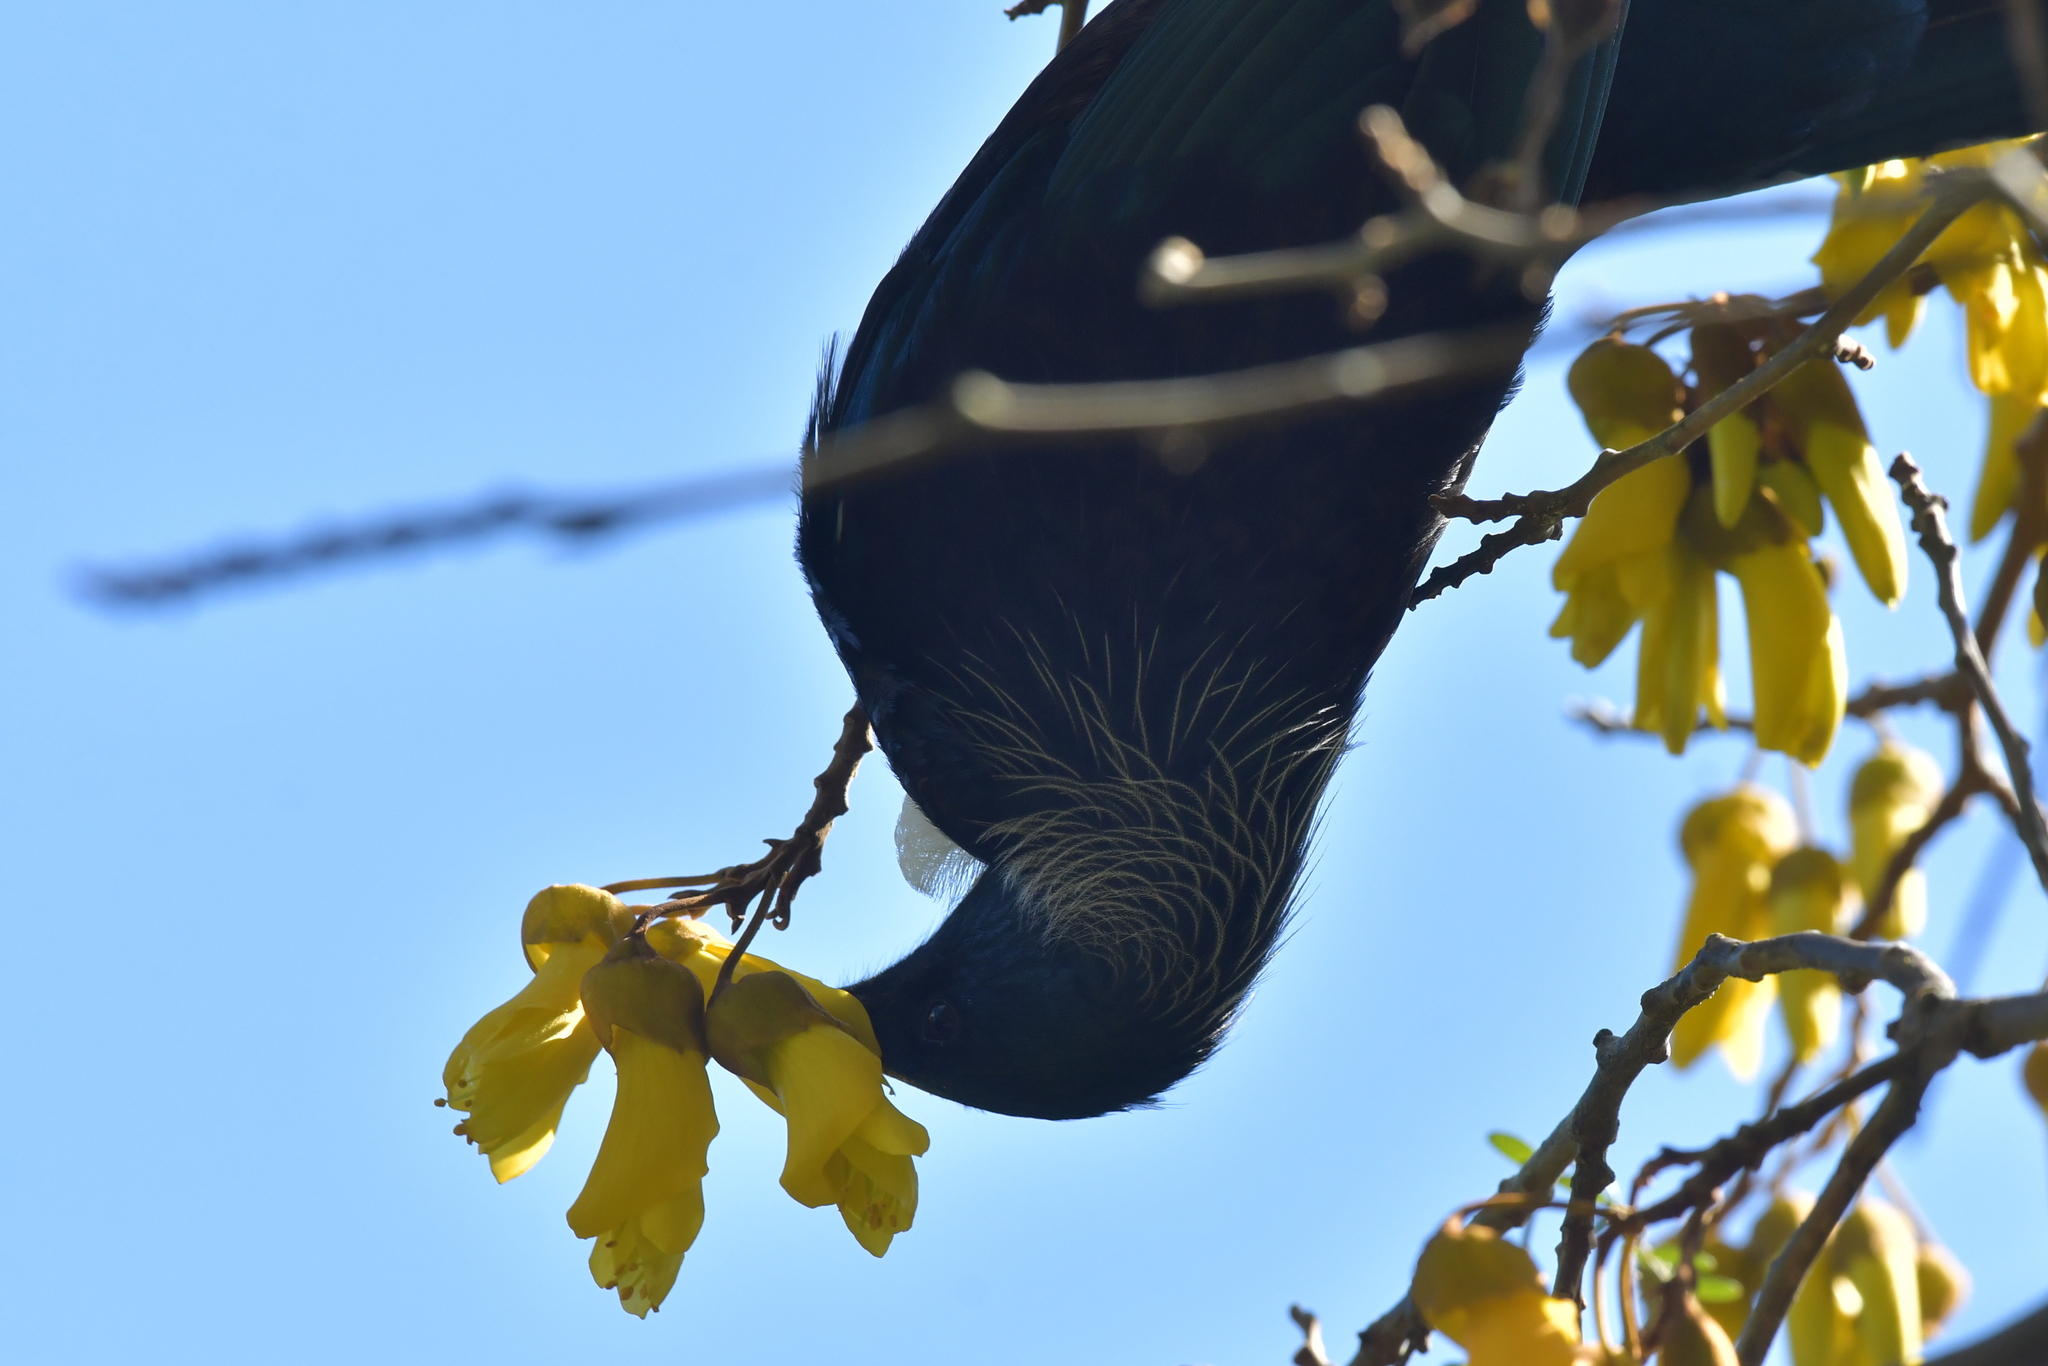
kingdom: Animalia
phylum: Chordata
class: Aves
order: Passeriformes
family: Meliphagidae
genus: Prosthemadera
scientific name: Prosthemadera novaeseelandiae
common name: Tui
